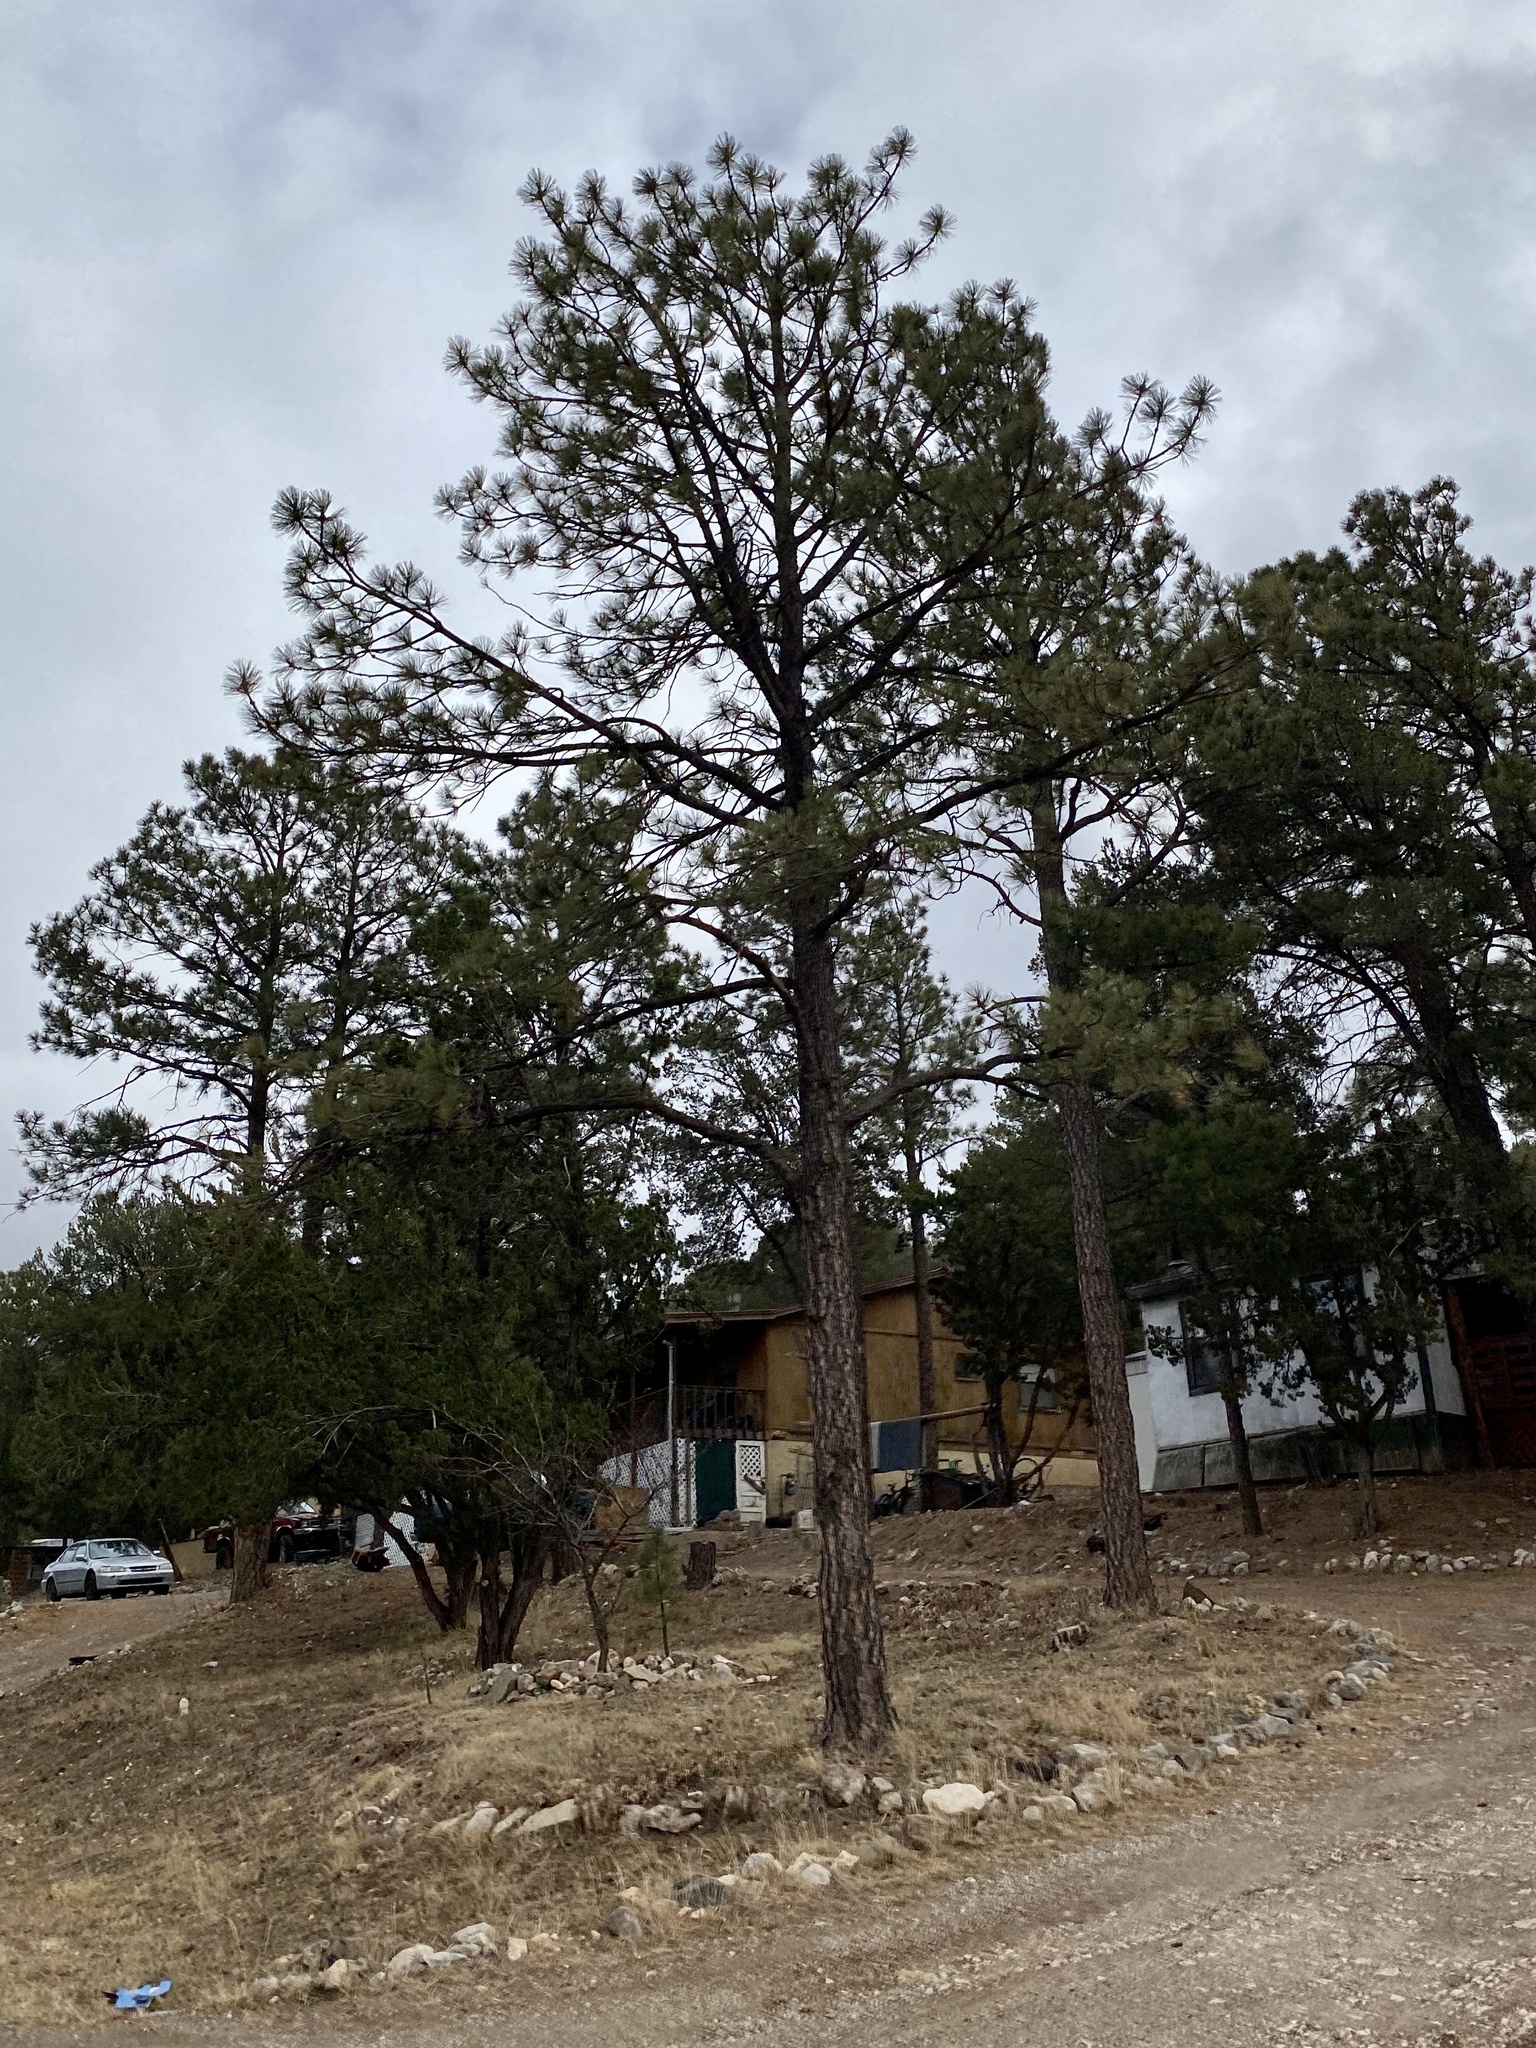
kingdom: Plantae
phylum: Tracheophyta
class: Pinopsida
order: Pinales
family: Pinaceae
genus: Pinus
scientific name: Pinus ponderosa
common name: Western yellow-pine
